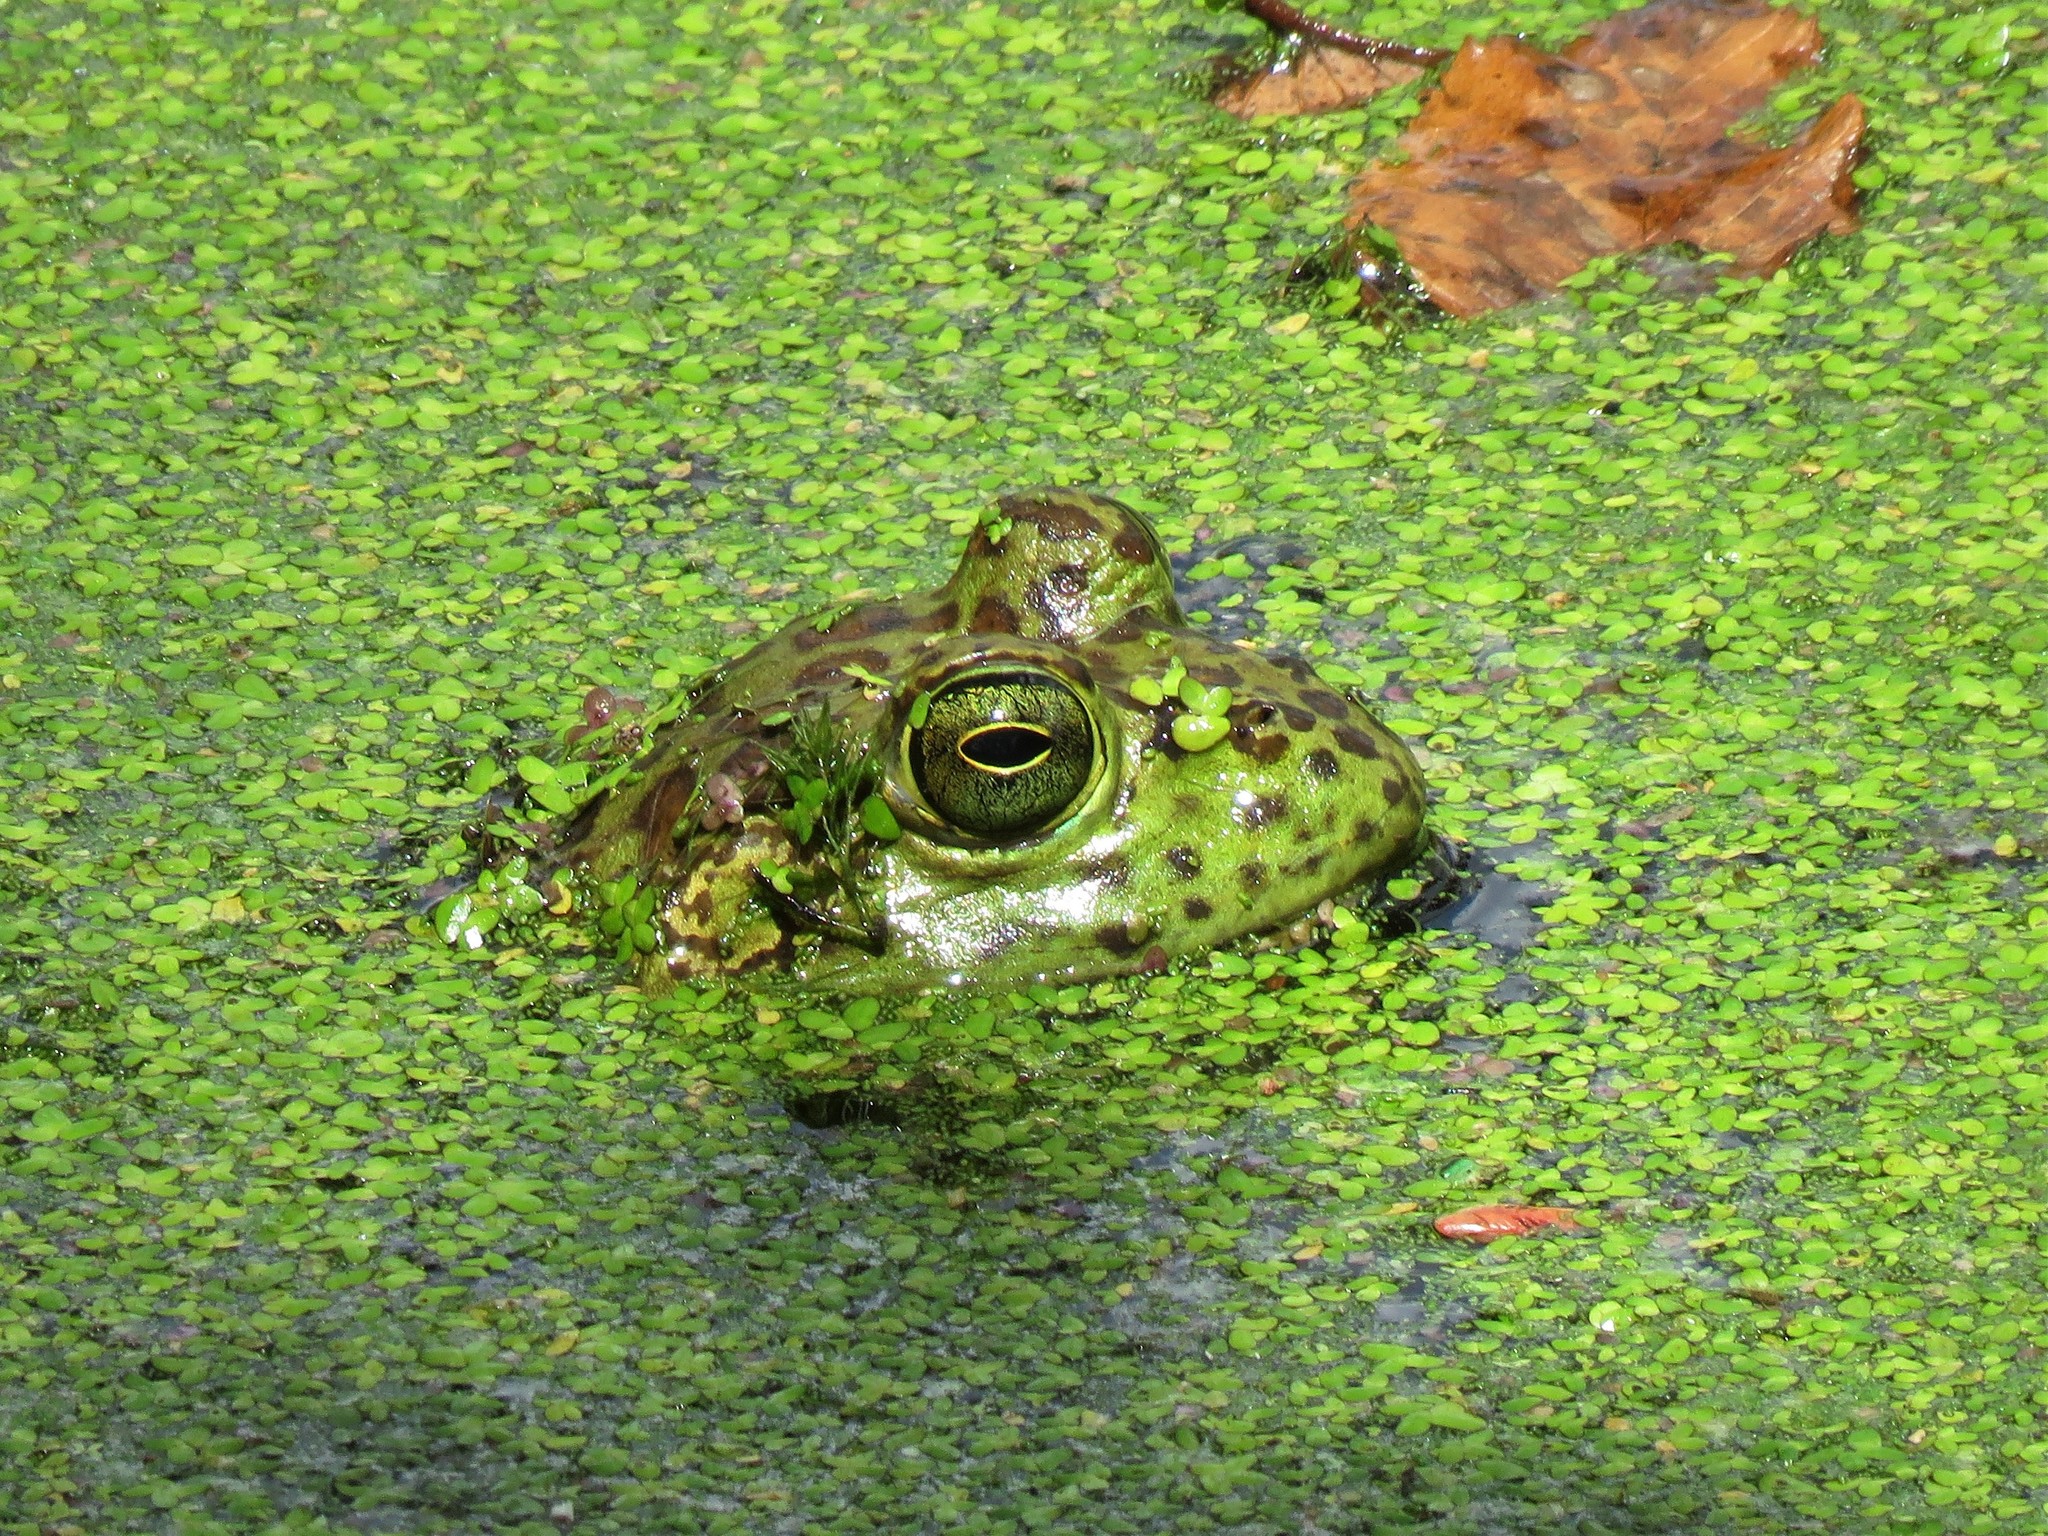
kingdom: Animalia
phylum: Chordata
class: Amphibia
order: Anura
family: Ranidae
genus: Lithobates
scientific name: Lithobates catesbeianus
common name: American bullfrog
